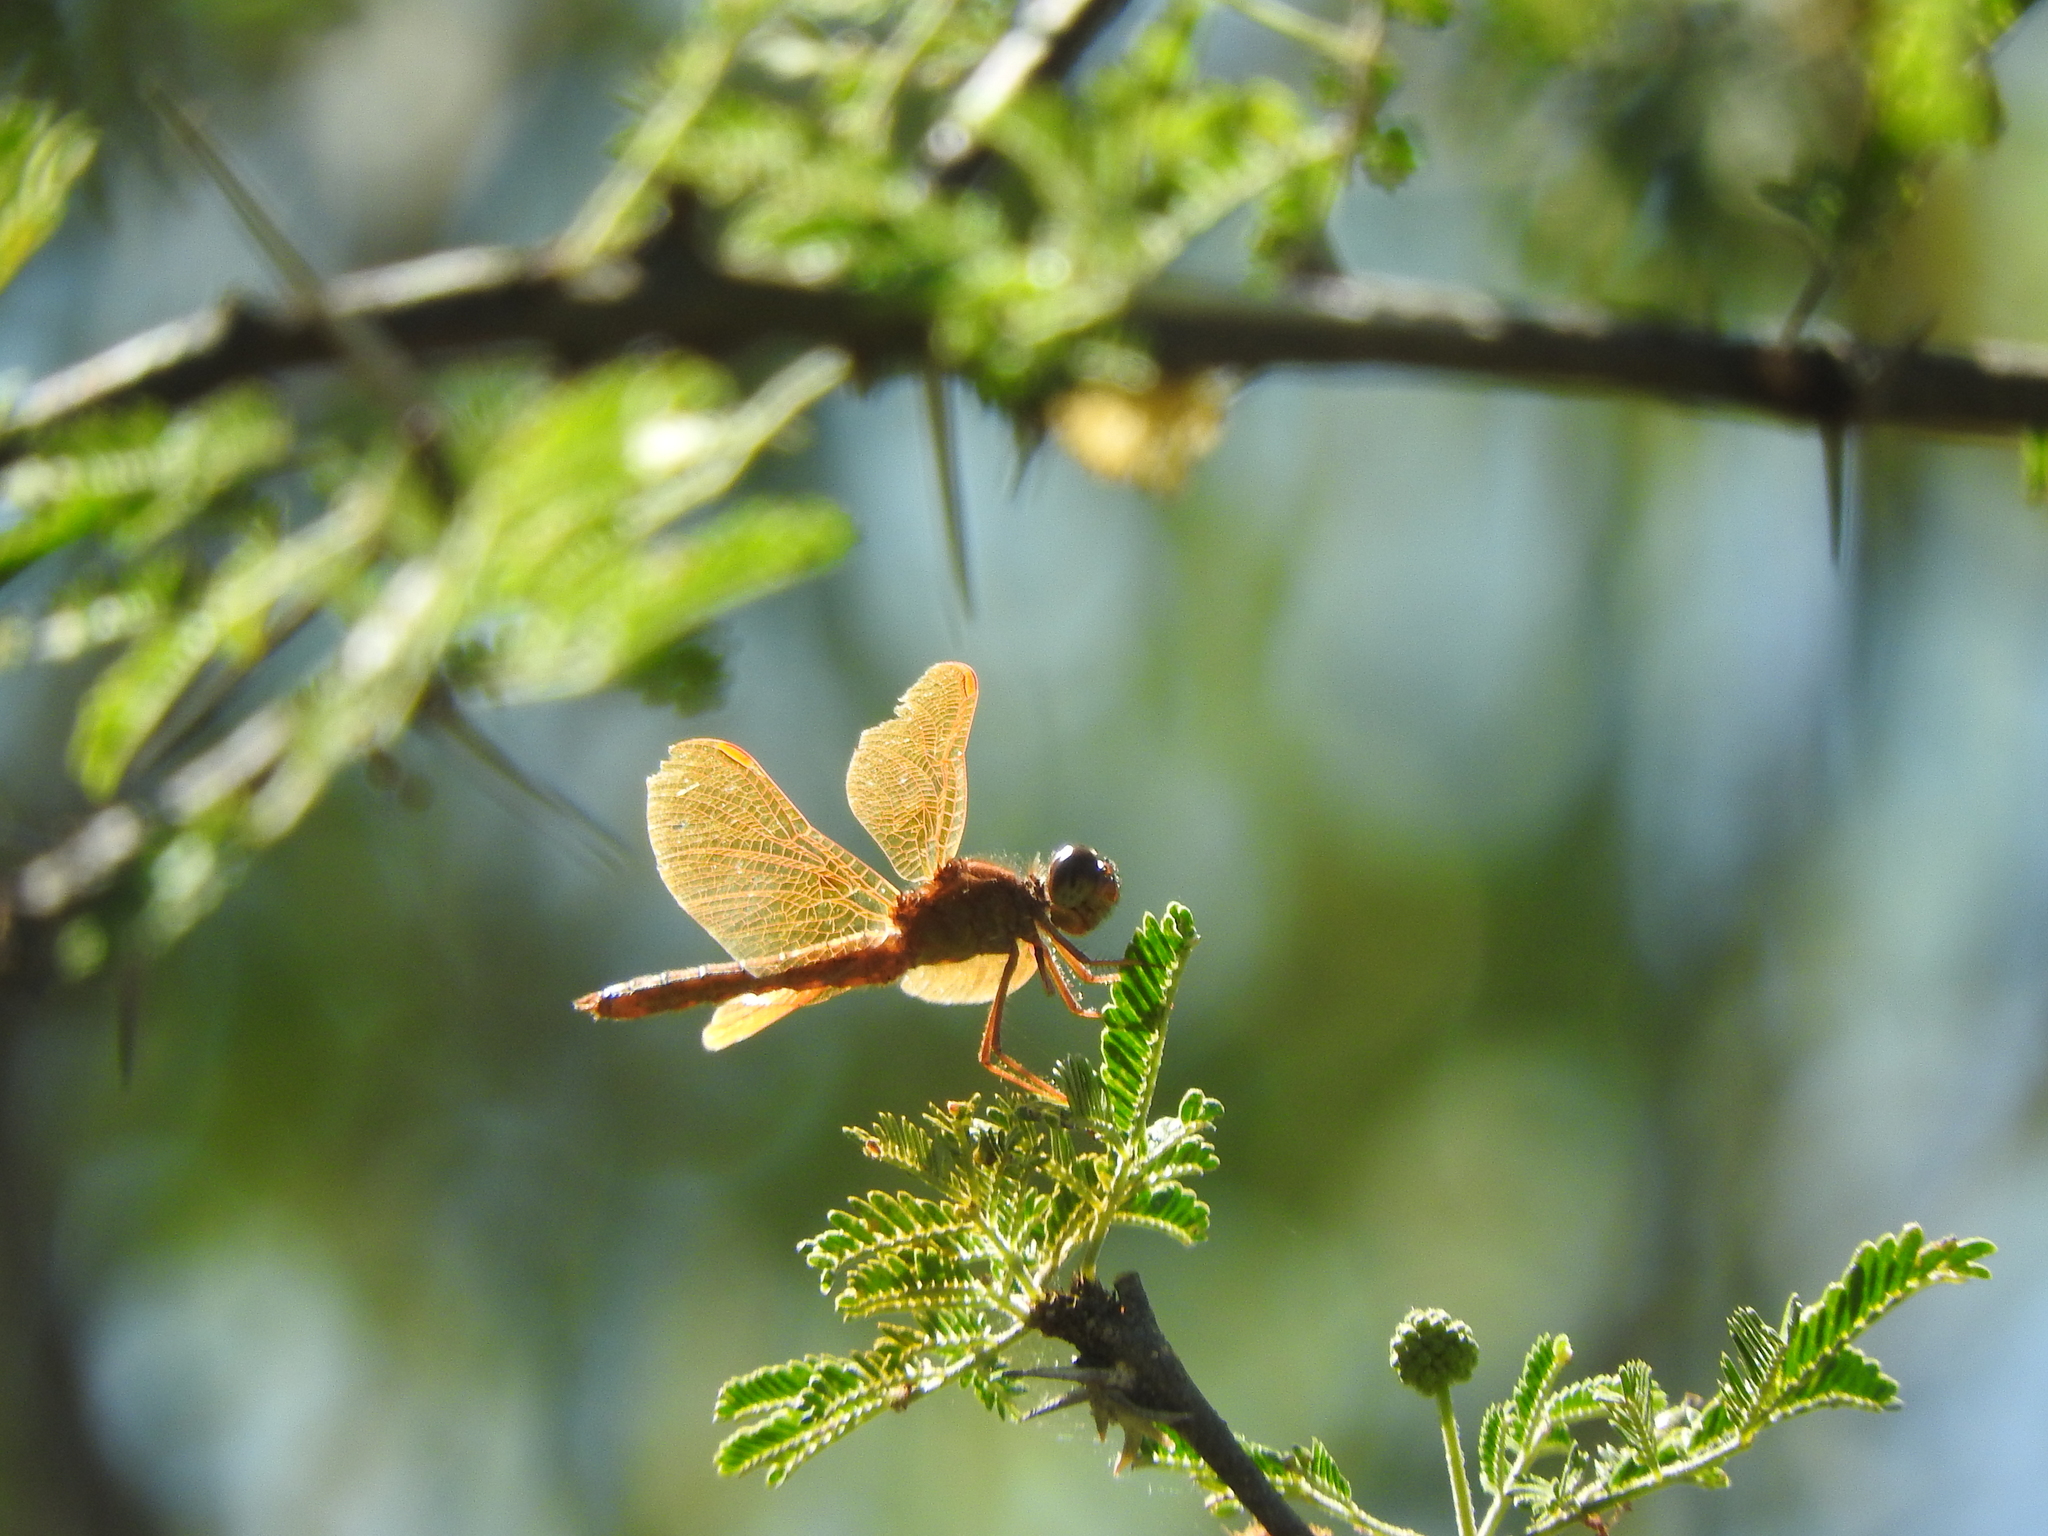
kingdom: Animalia
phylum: Arthropoda
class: Insecta
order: Odonata
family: Libellulidae
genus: Perithemis
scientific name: Perithemis intensa
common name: Mexican amberwing
